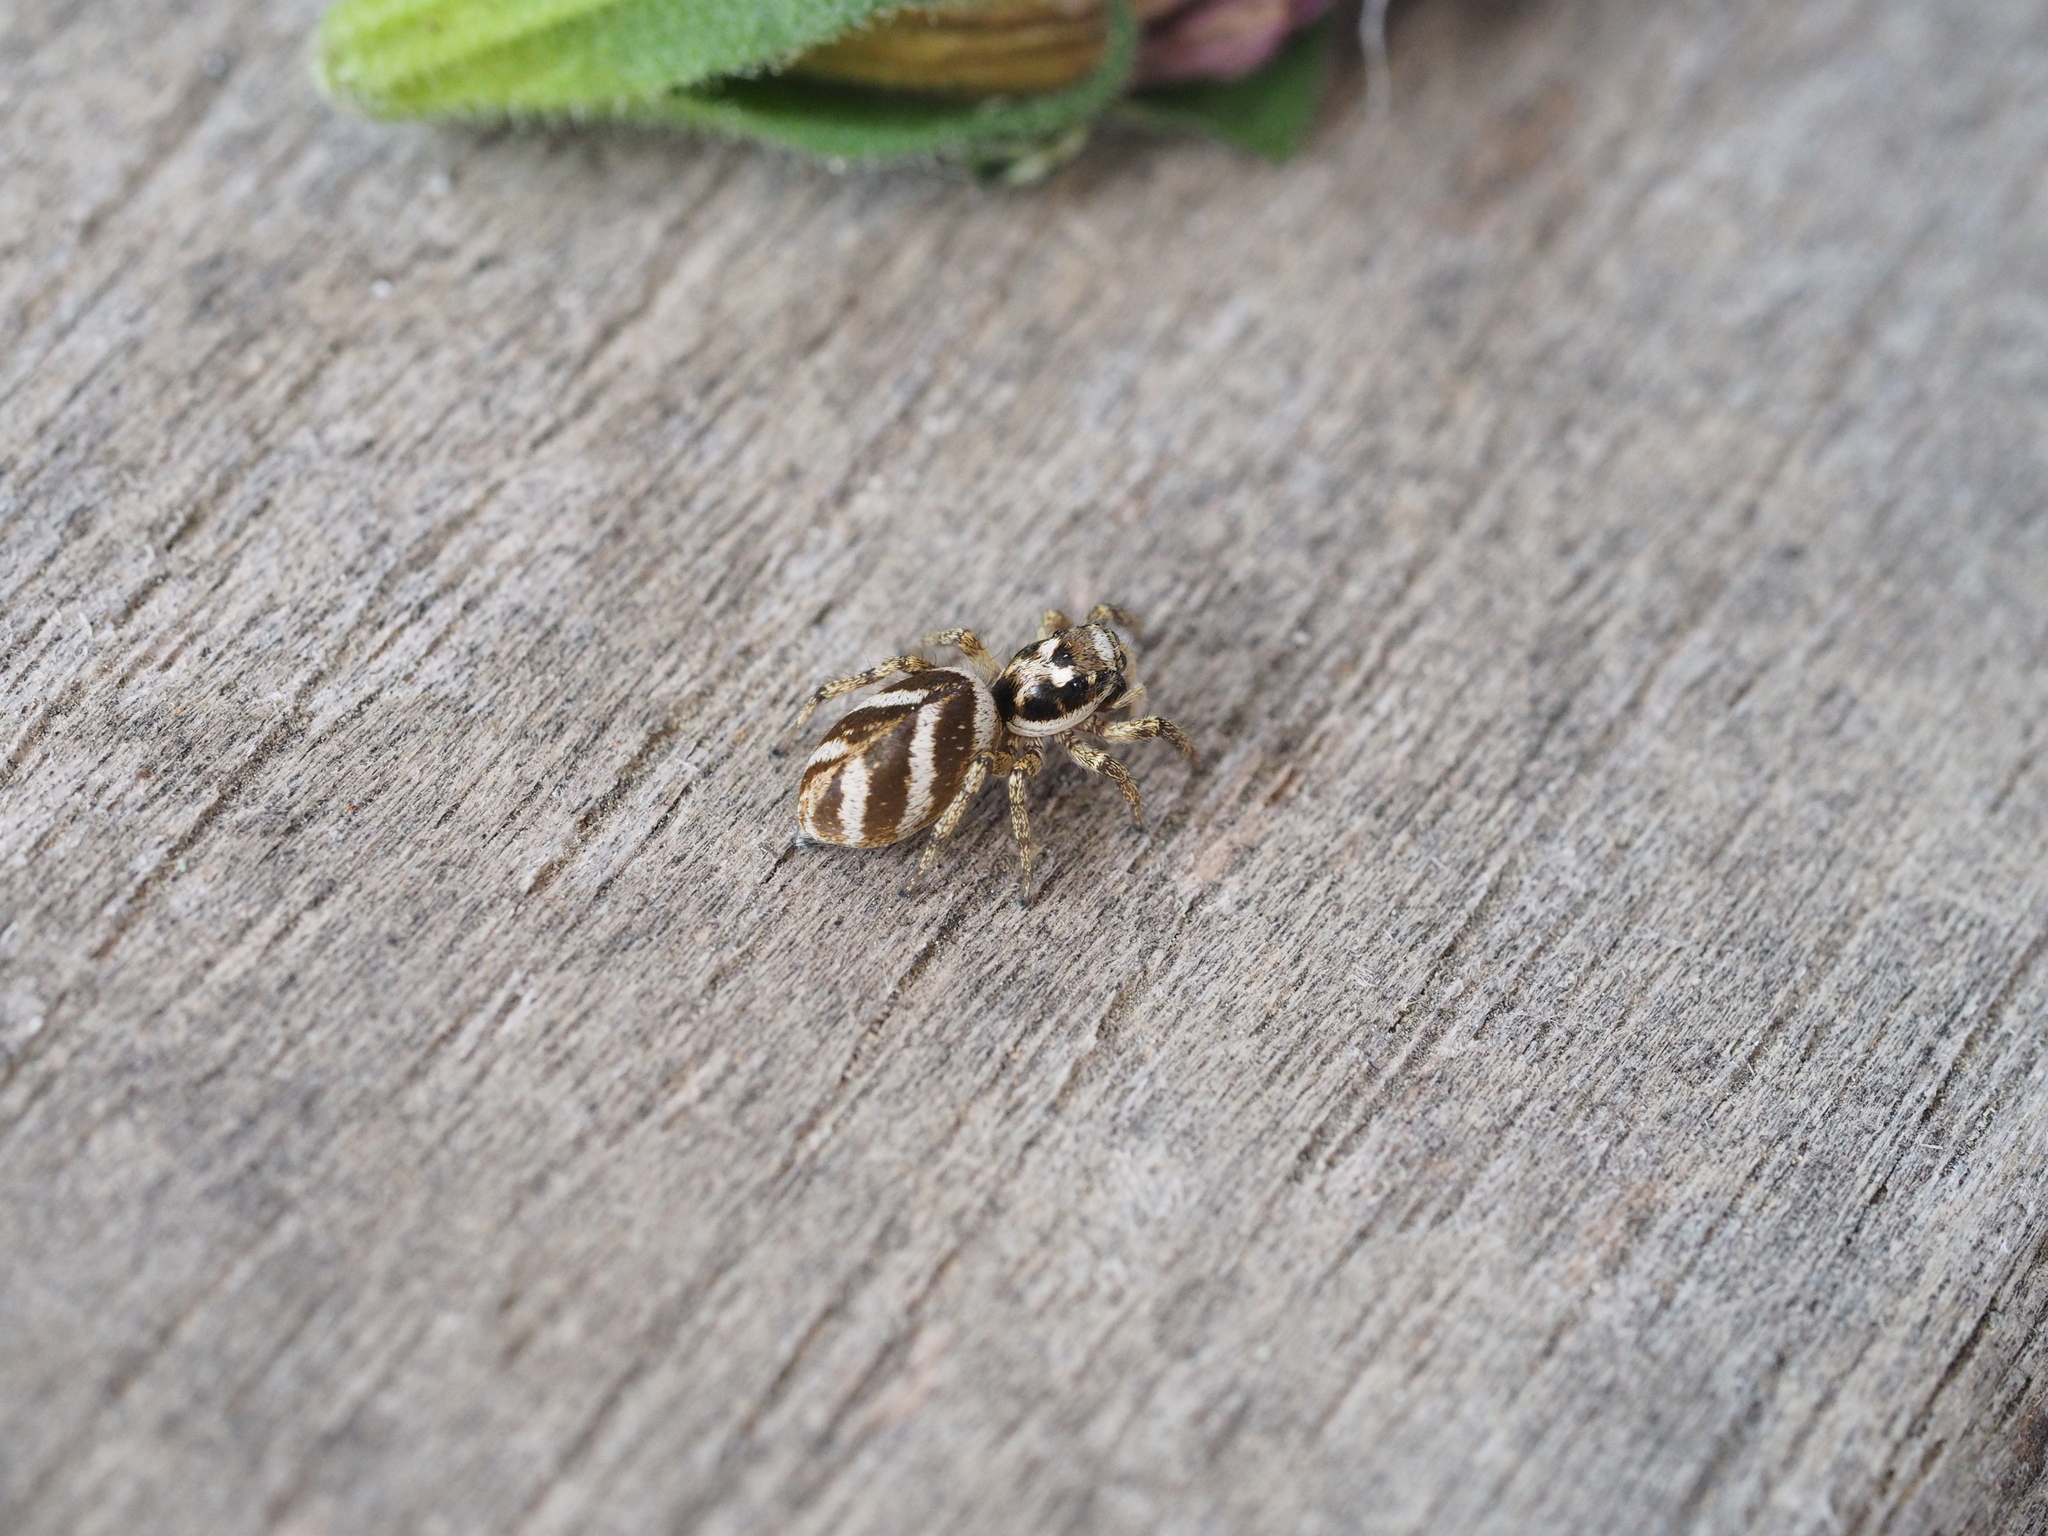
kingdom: Animalia
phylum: Arthropoda
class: Arachnida
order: Araneae
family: Salticidae
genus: Salticus
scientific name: Salticus scenicus
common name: Zebra jumper
